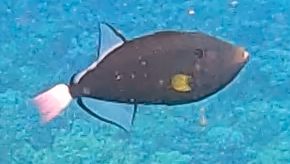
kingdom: Animalia
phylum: Chordata
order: Tetraodontiformes
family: Balistidae
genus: Melichthys
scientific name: Melichthys vidua
